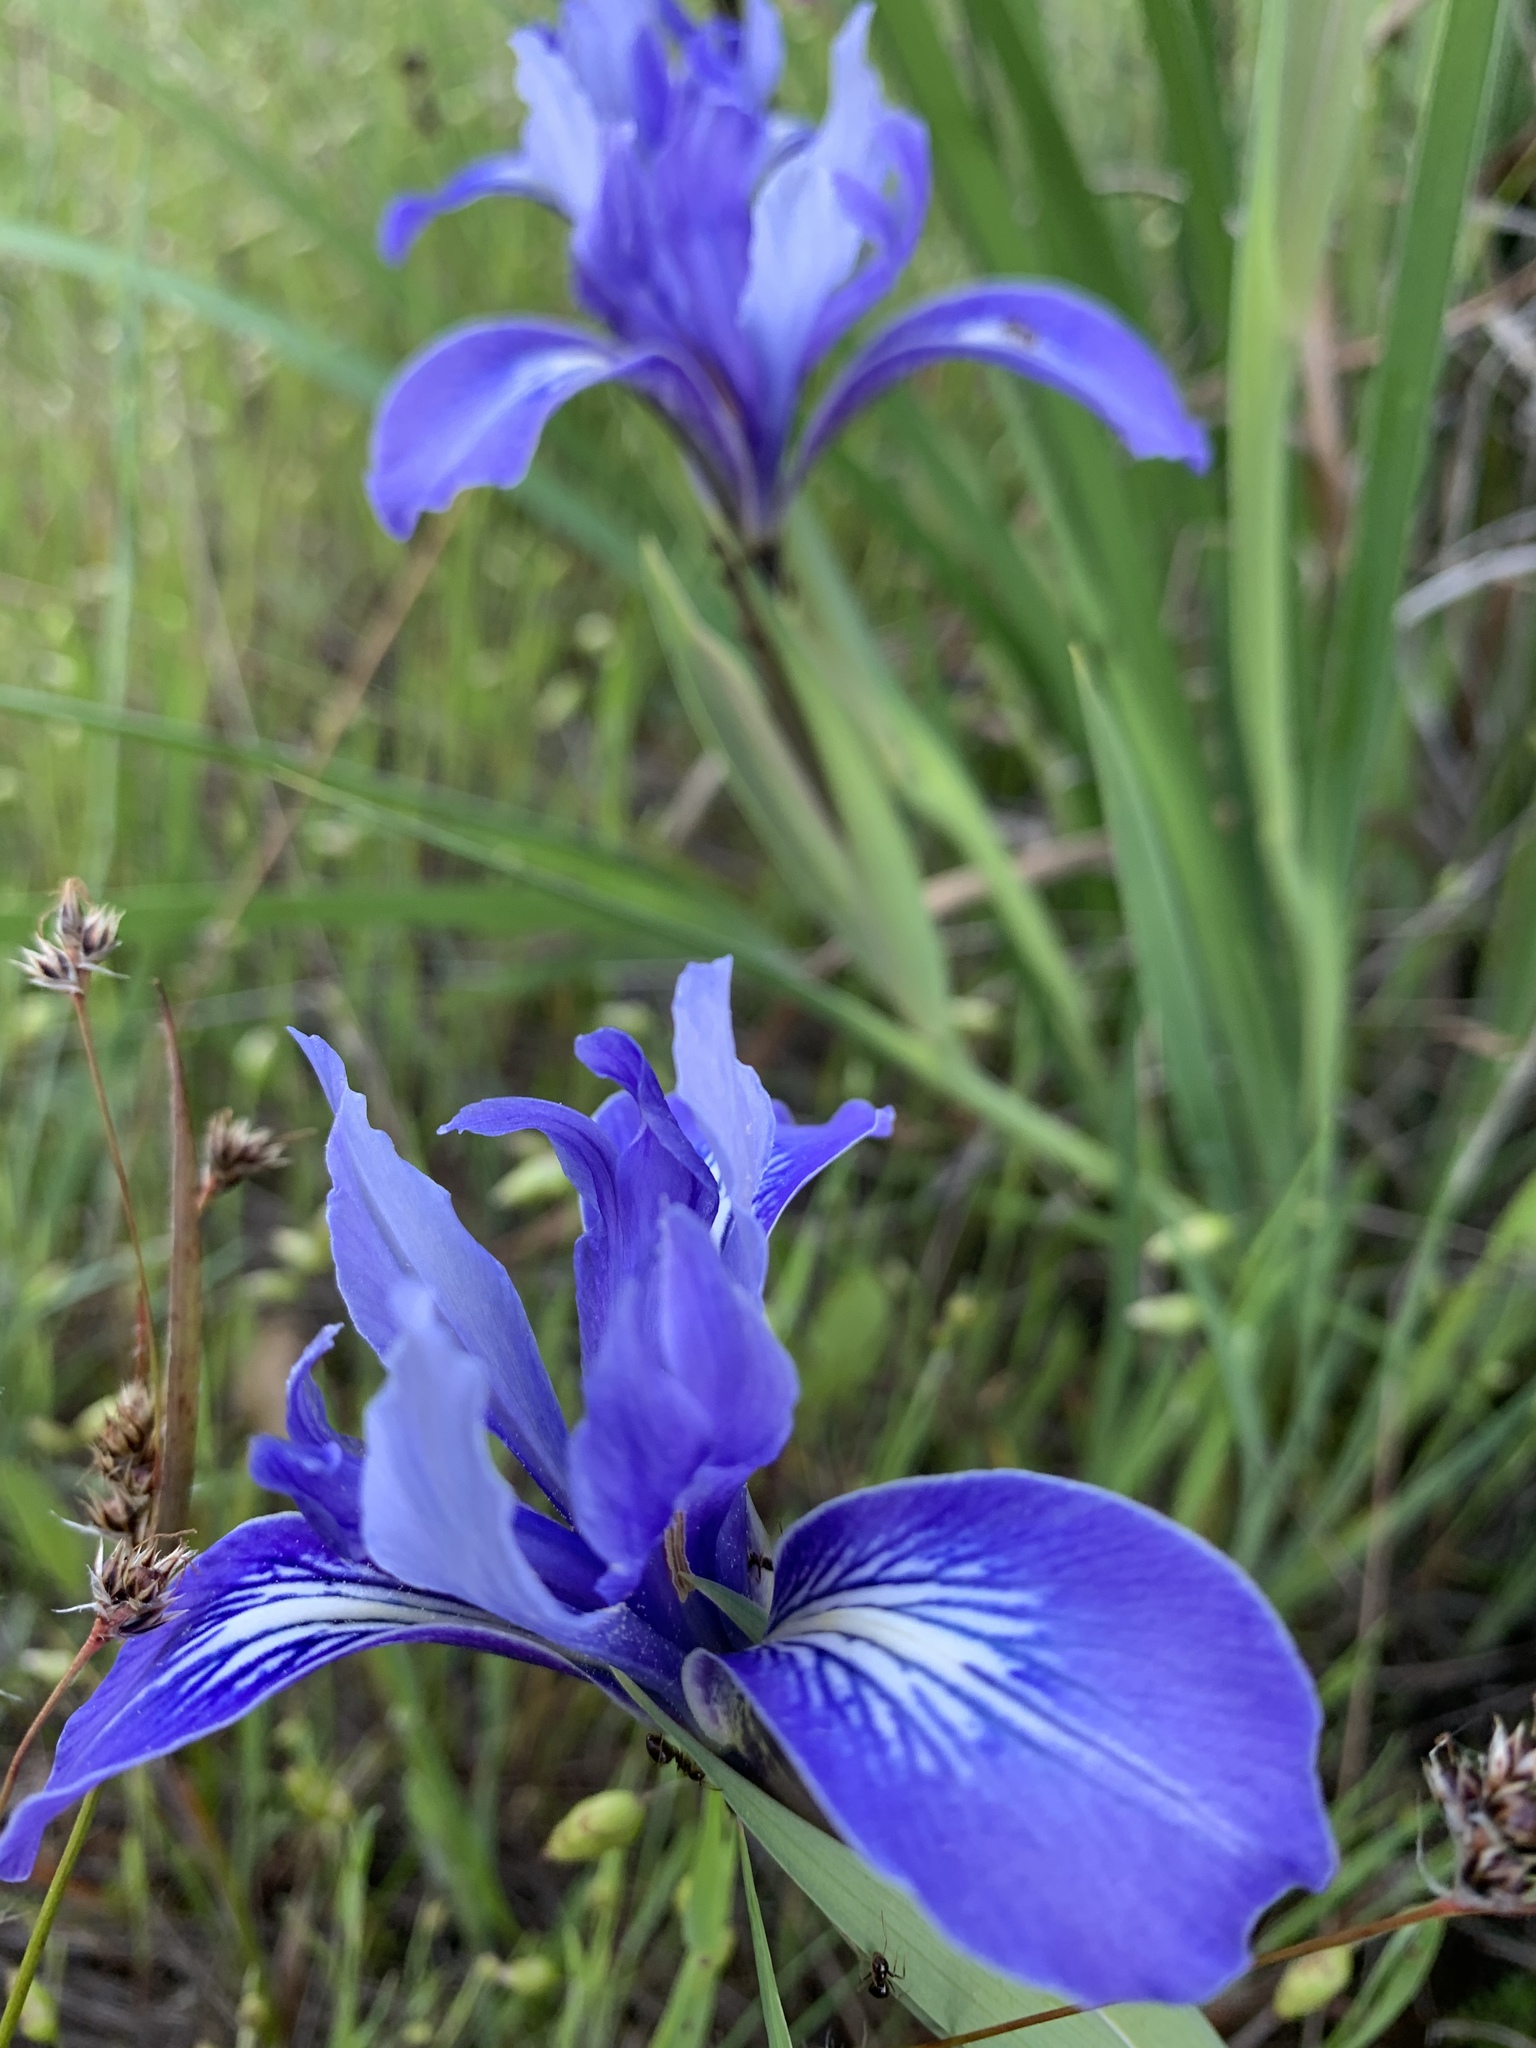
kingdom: Plantae
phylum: Tracheophyta
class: Liliopsida
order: Asparagales
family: Iridaceae
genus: Iris
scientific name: Iris macrosiphon
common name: Ground iris
